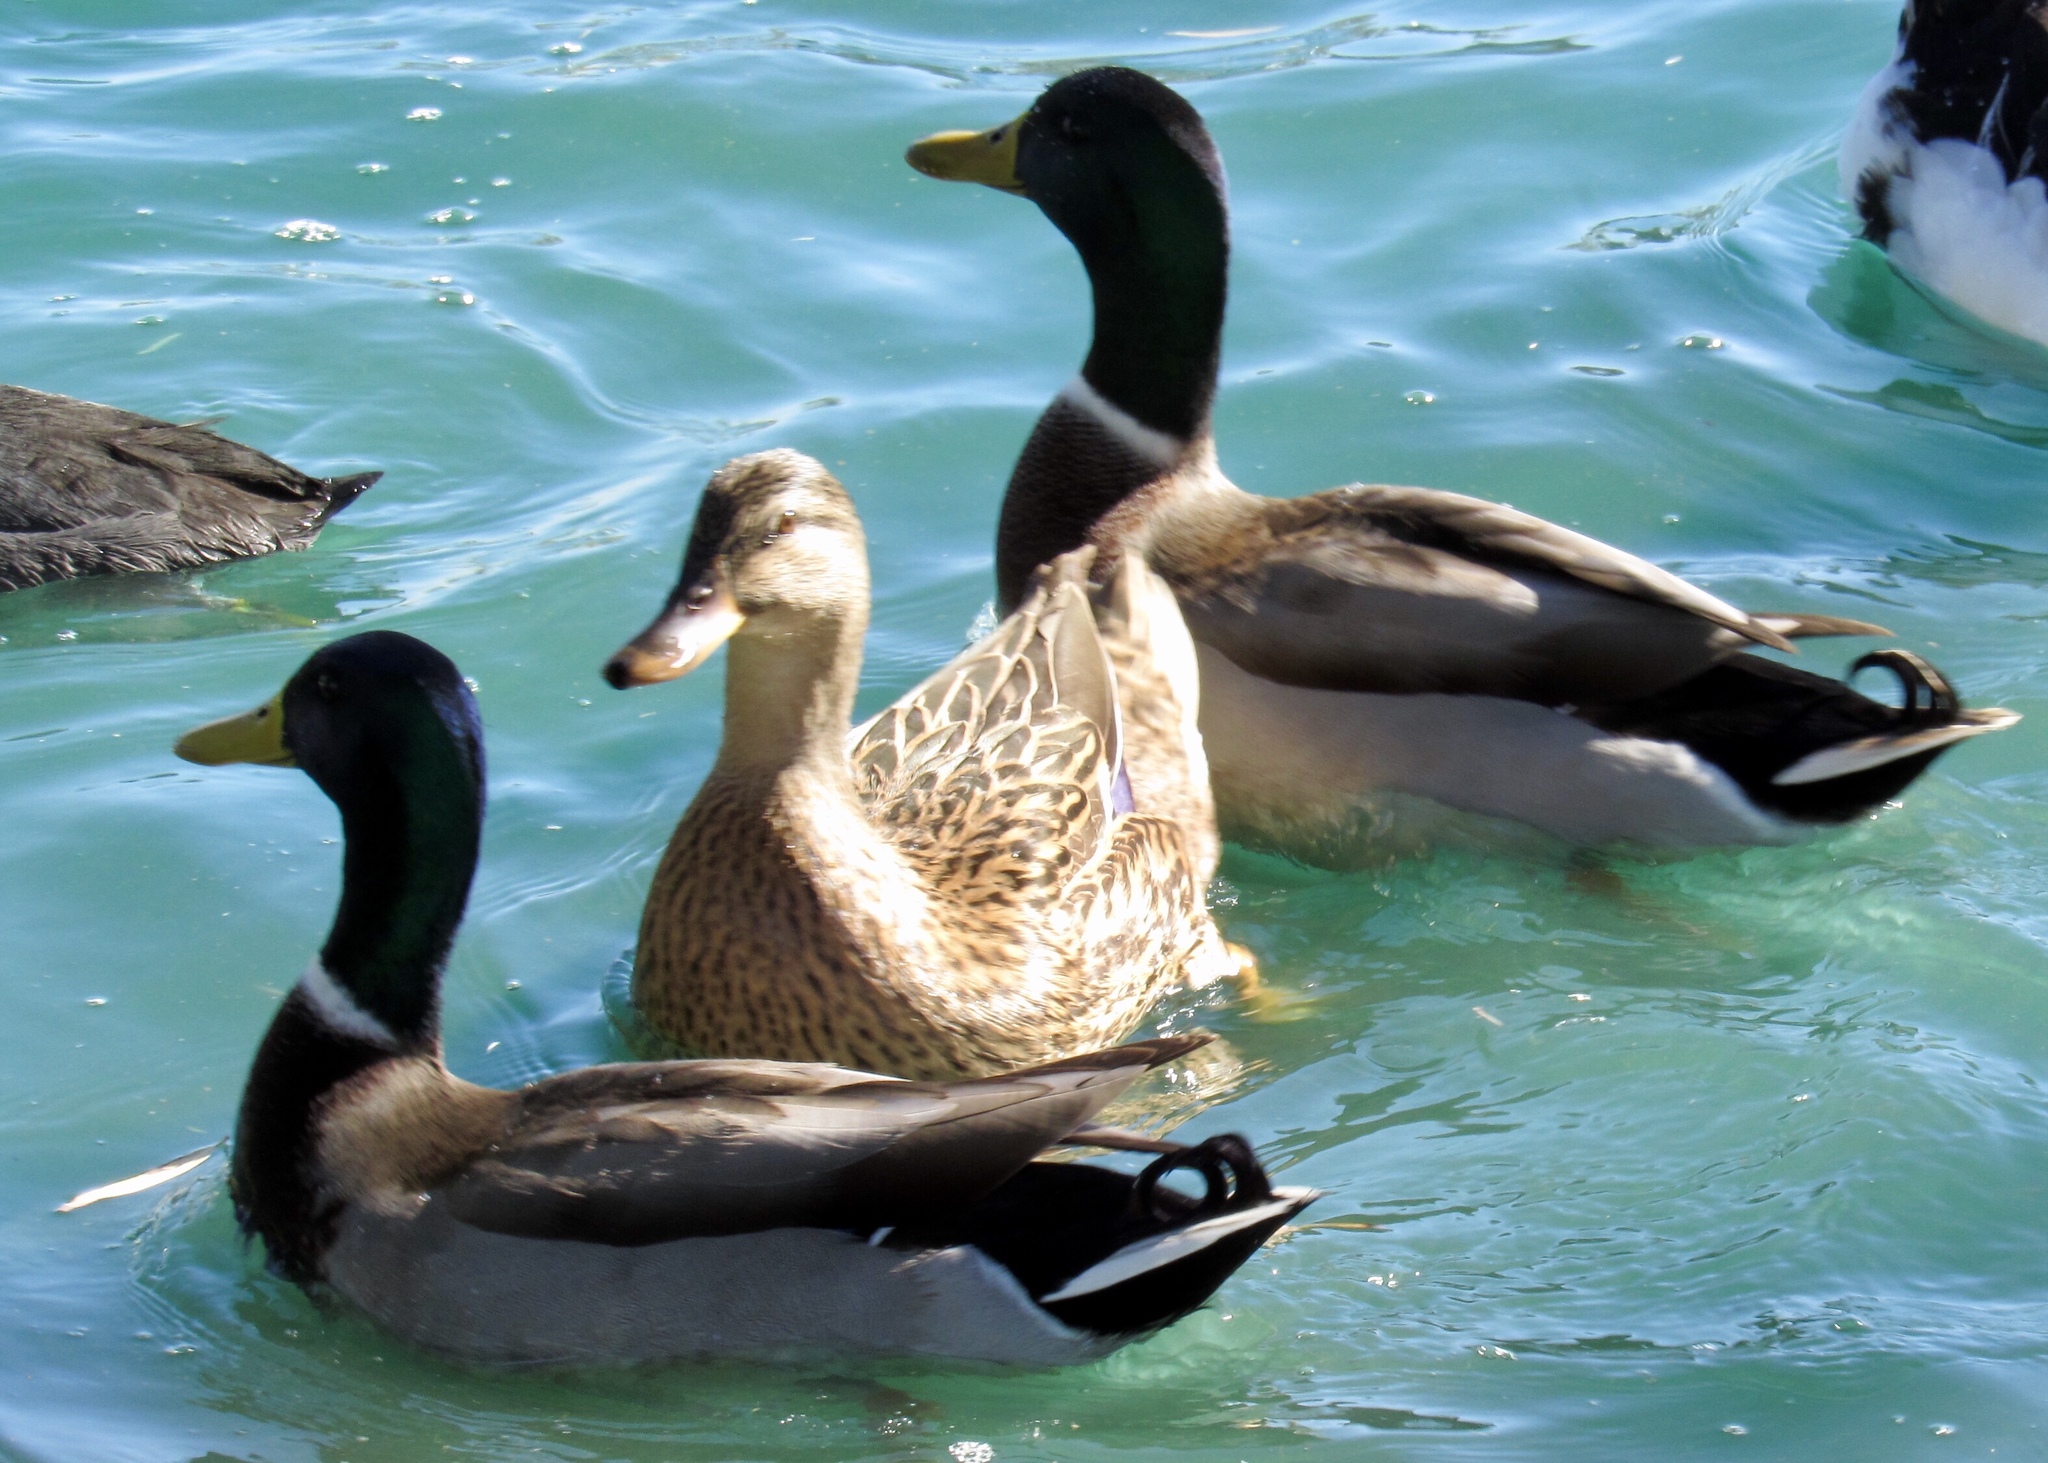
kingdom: Animalia
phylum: Chordata
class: Aves
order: Anseriformes
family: Anatidae
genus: Anas
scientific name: Anas platyrhynchos
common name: Mallard
